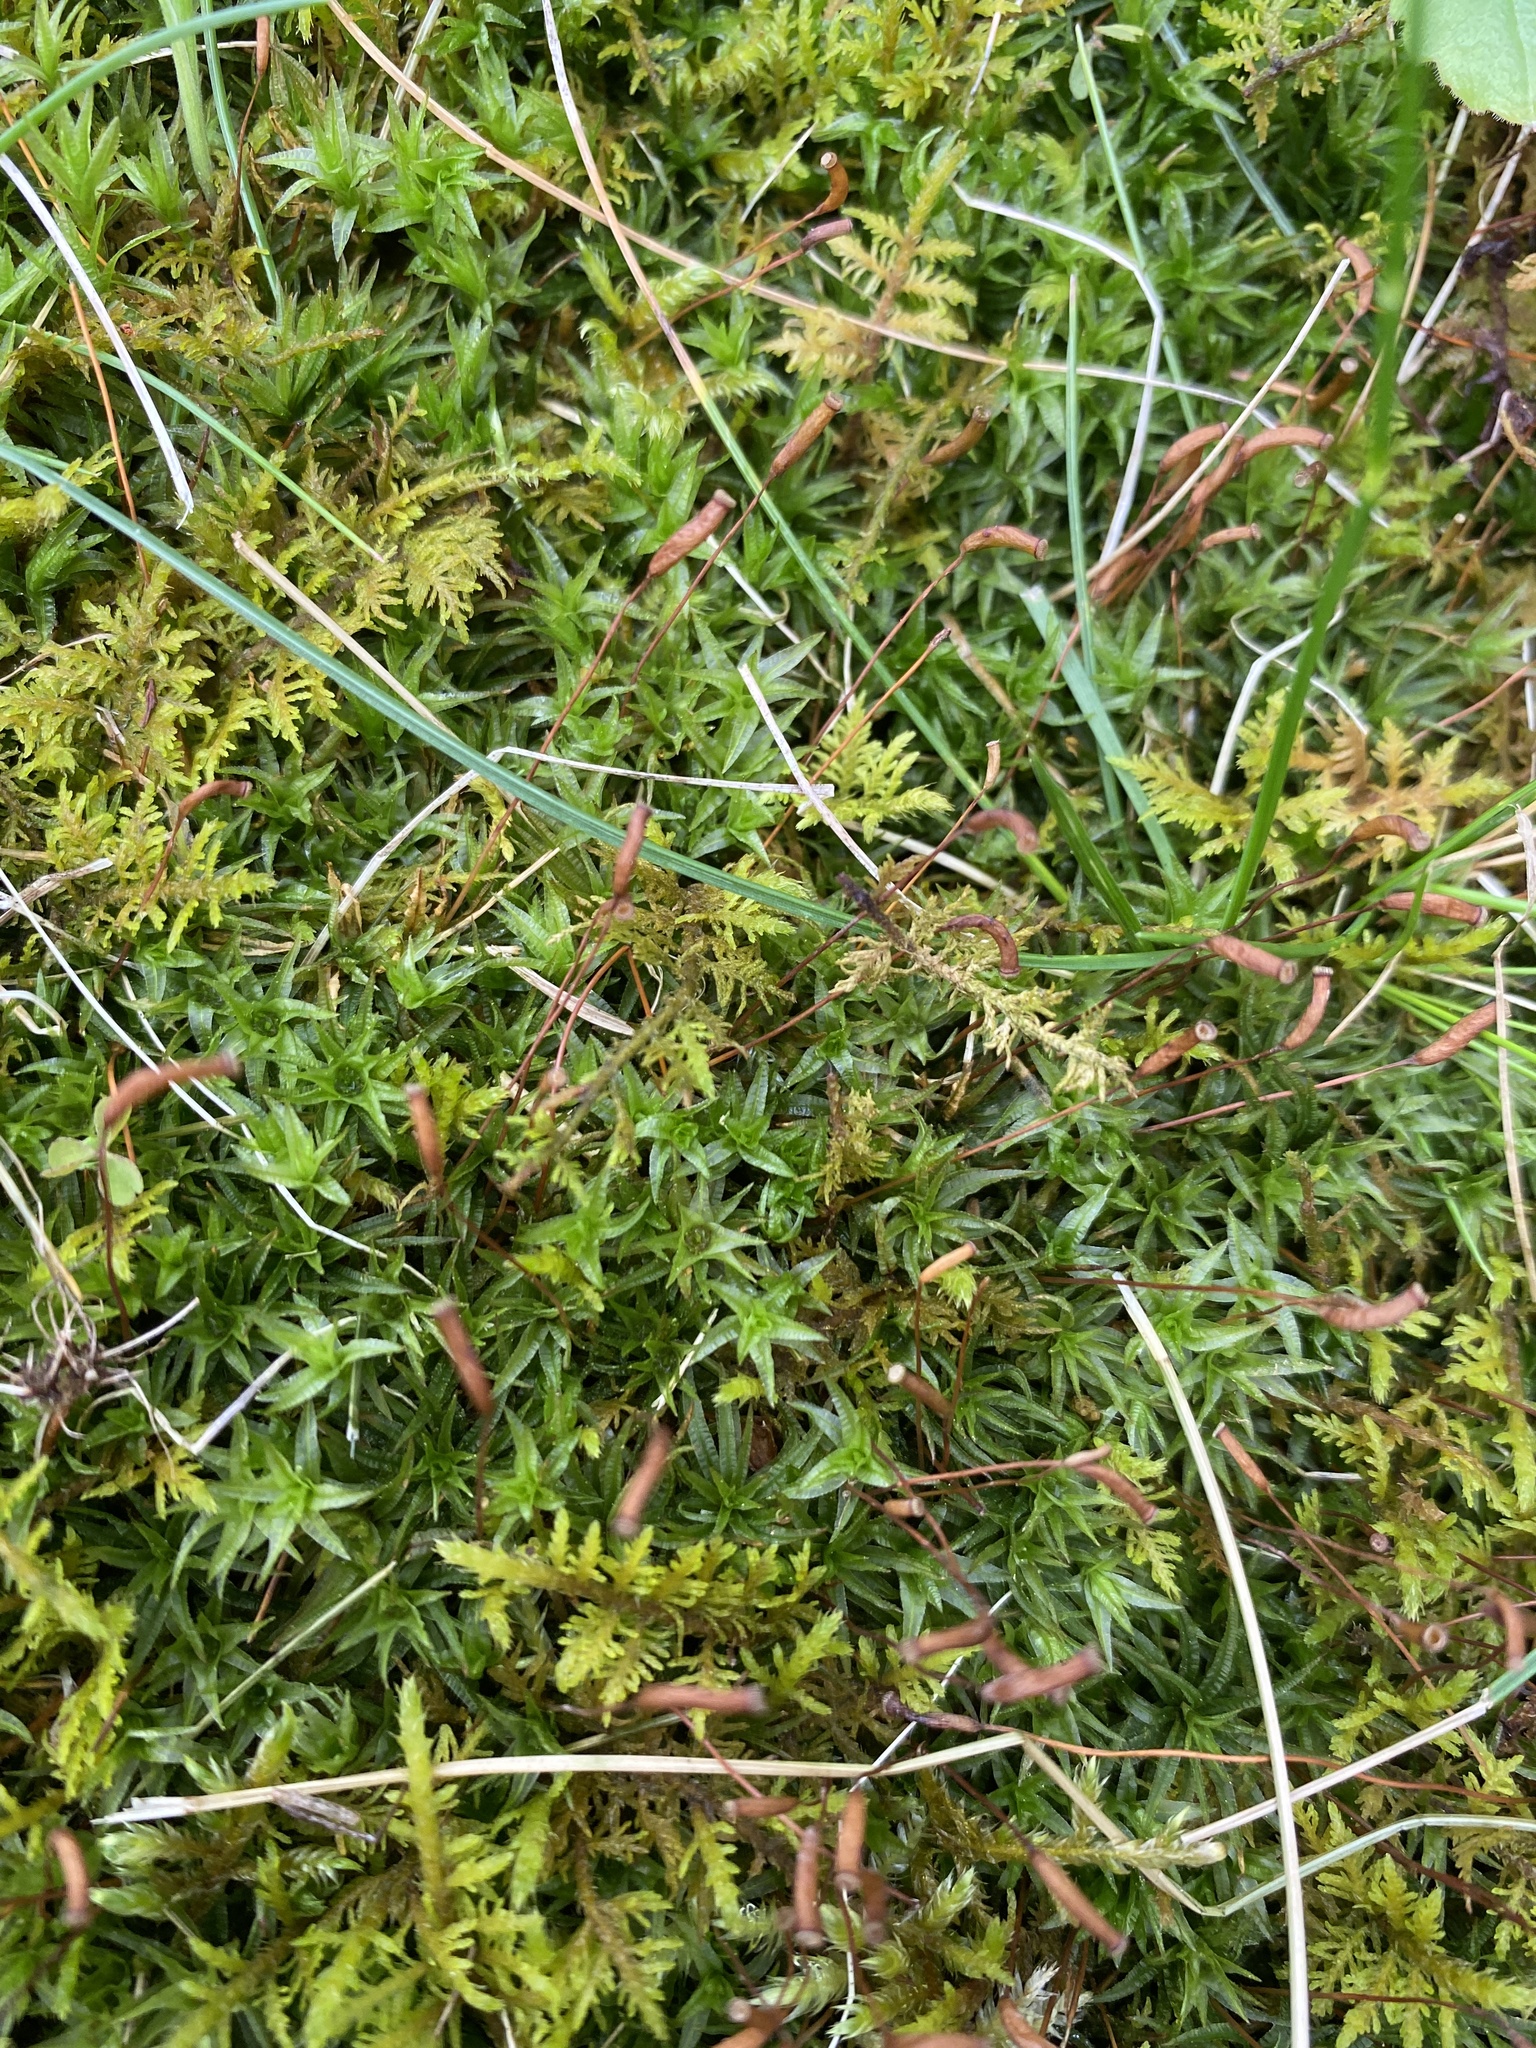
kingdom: Plantae
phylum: Bryophyta
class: Polytrichopsida
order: Polytrichales
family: Polytrichaceae
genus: Atrichum
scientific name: Atrichum crispulum
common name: Strongly crispate smoothcap moss
